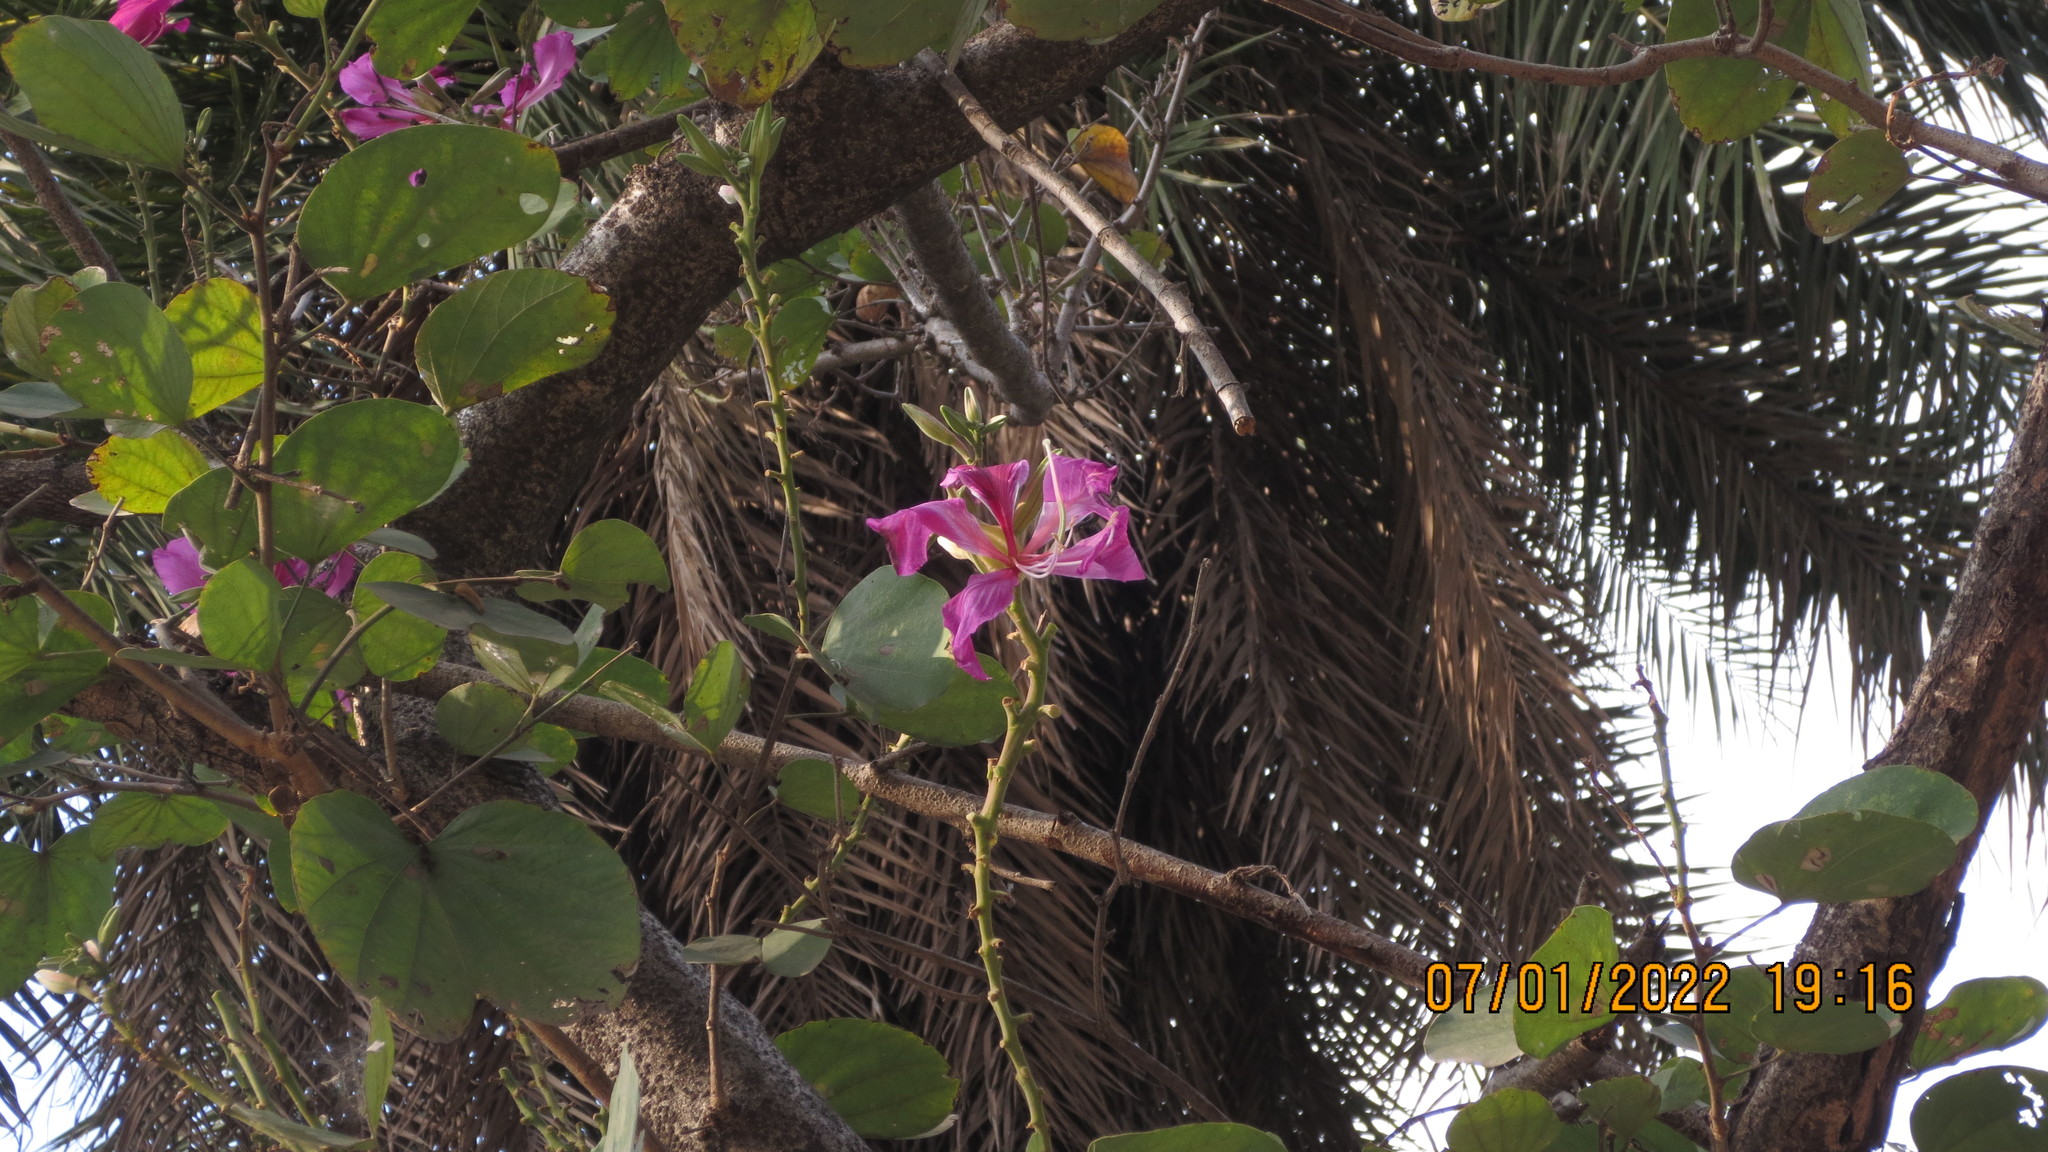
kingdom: Plantae
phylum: Tracheophyta
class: Magnoliopsida
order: Fabales
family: Fabaceae
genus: Bauhinia
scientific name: Bauhinia variegata
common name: Mountain ebony
